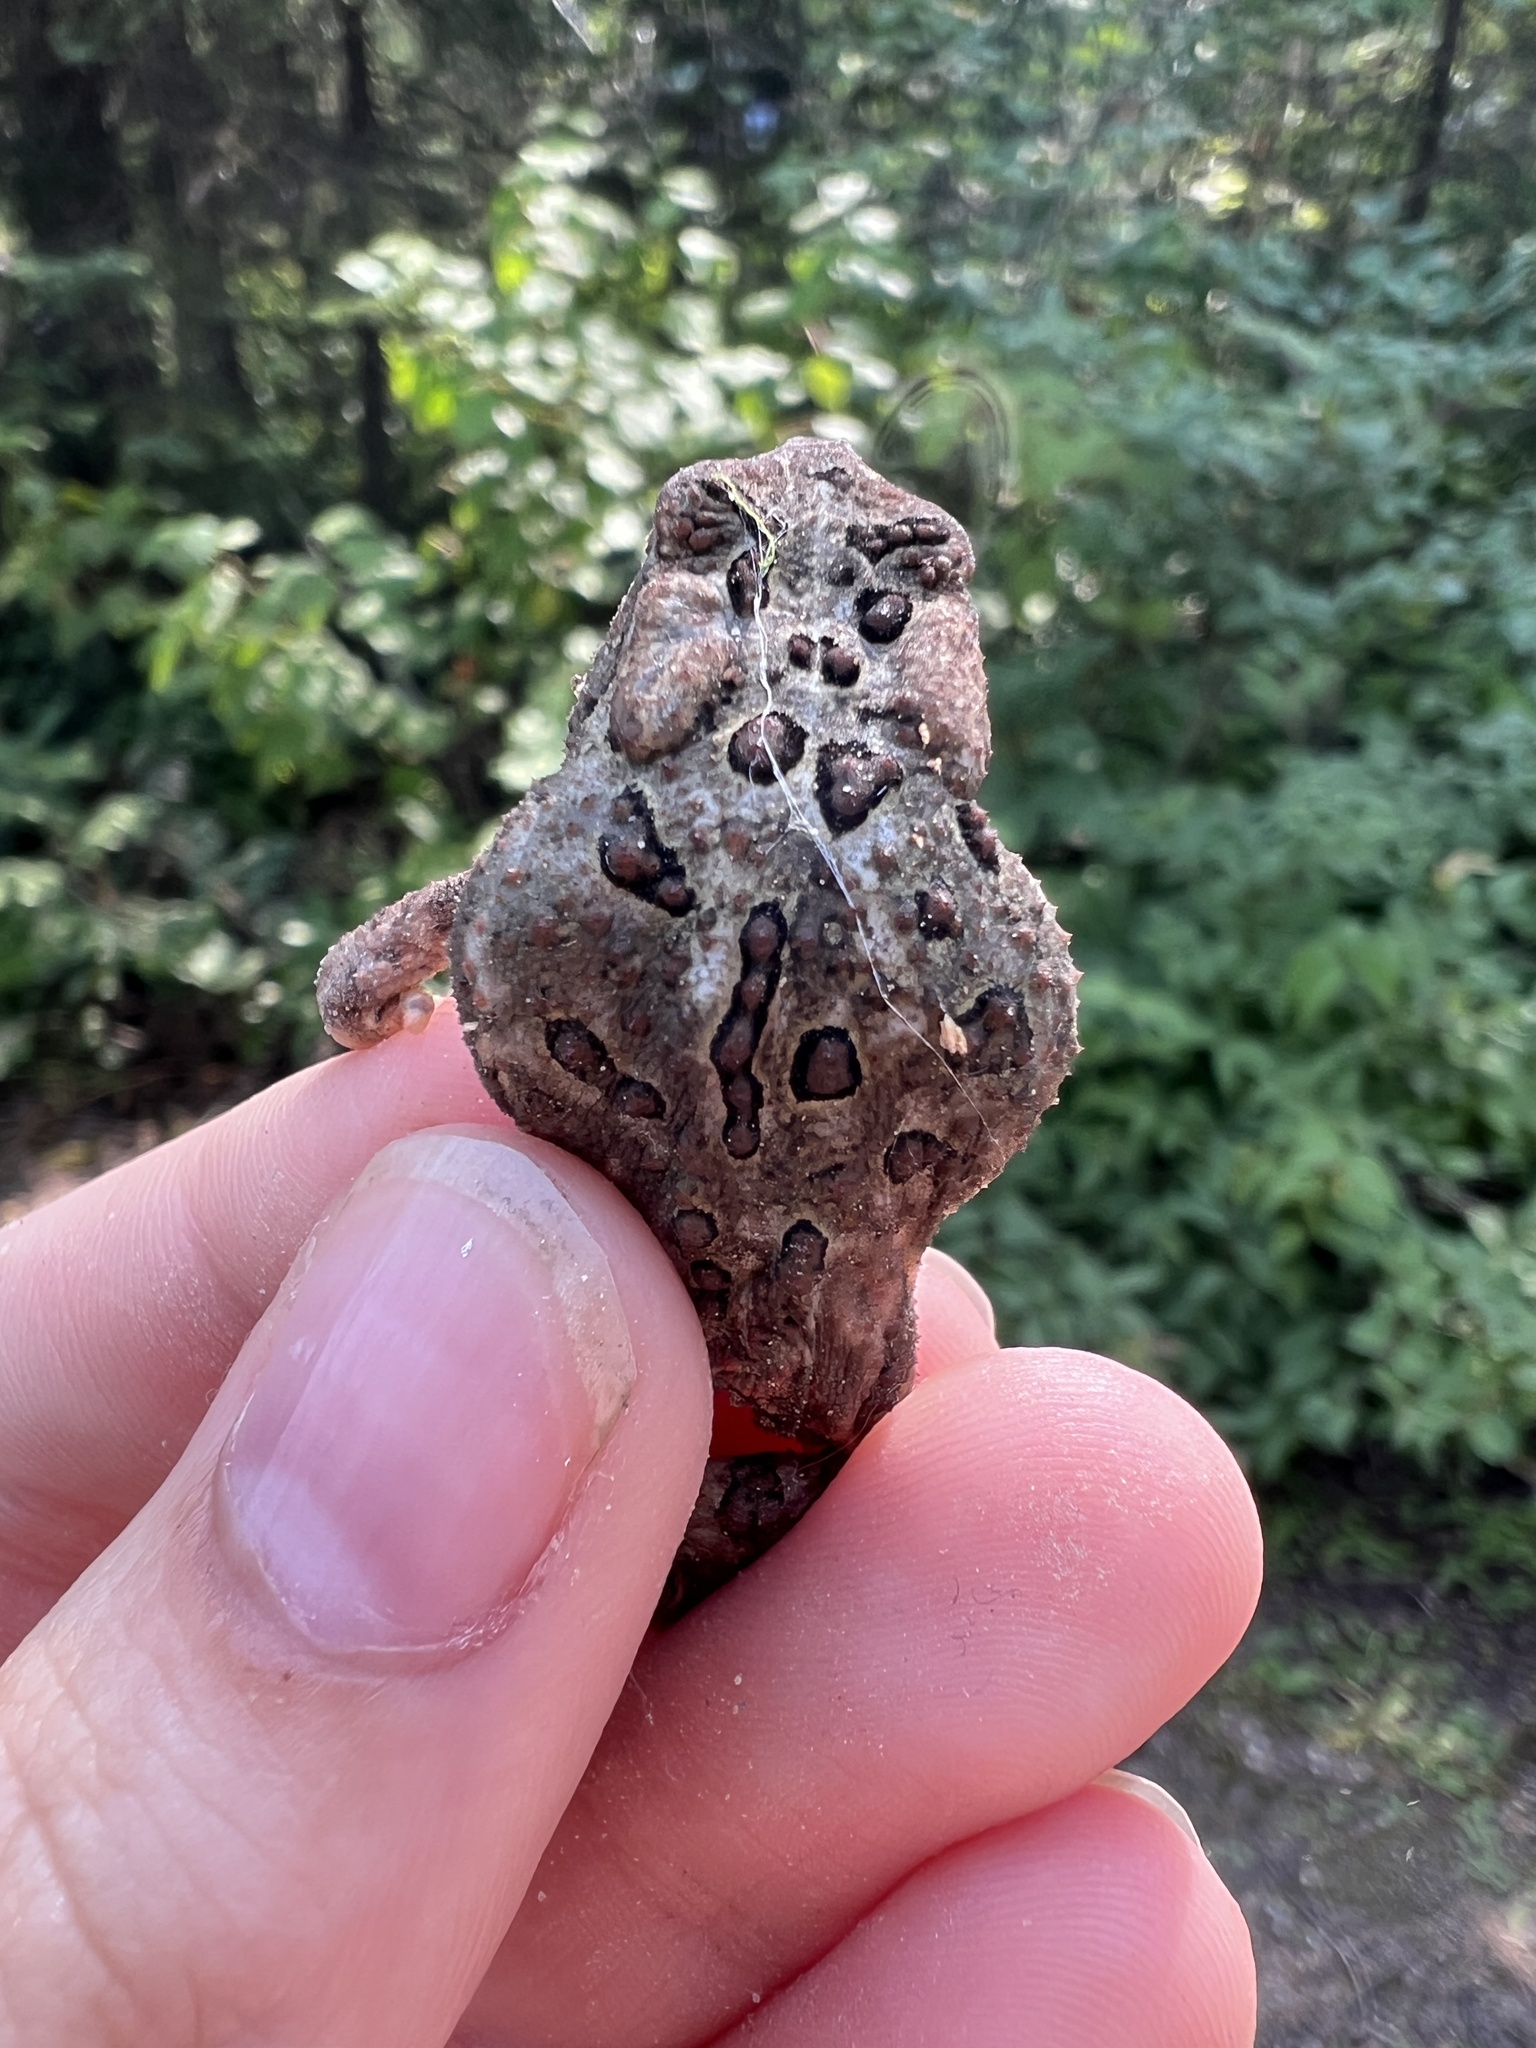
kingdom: Animalia
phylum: Chordata
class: Amphibia
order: Anura
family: Bufonidae
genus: Anaxyrus
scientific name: Anaxyrus americanus
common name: American toad
